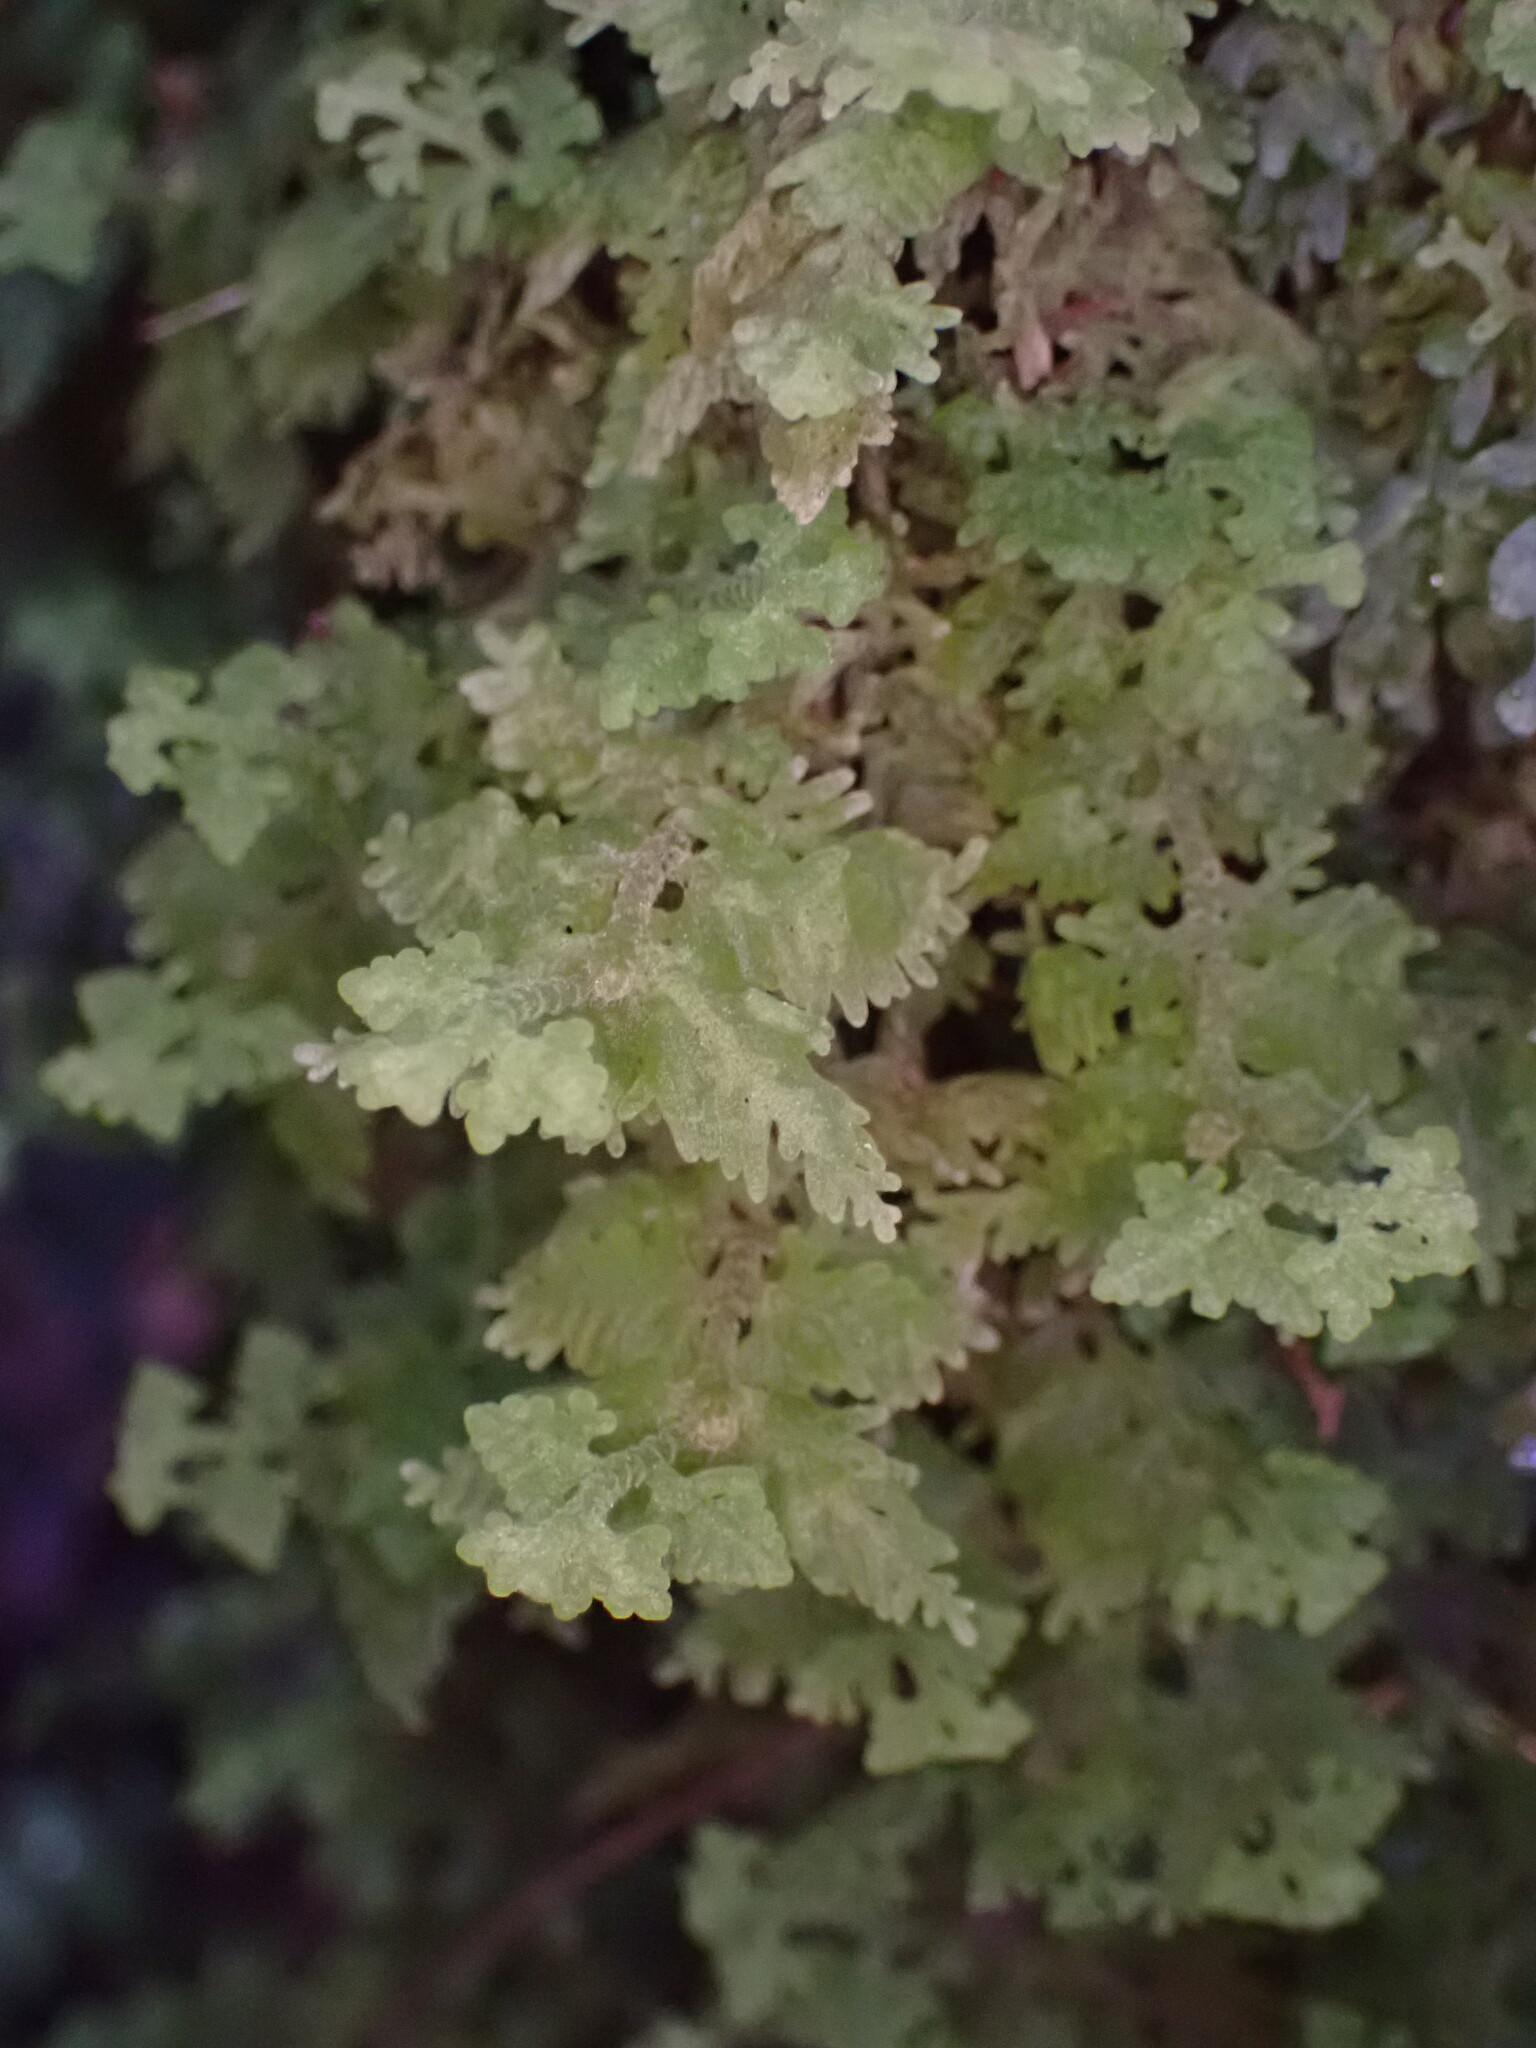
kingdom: Plantae
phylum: Marchantiophyta
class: Jungermanniopsida
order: Jungermanniales
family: Trichocoleaceae
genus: Trichocolea
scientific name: Trichocolea mollissima
